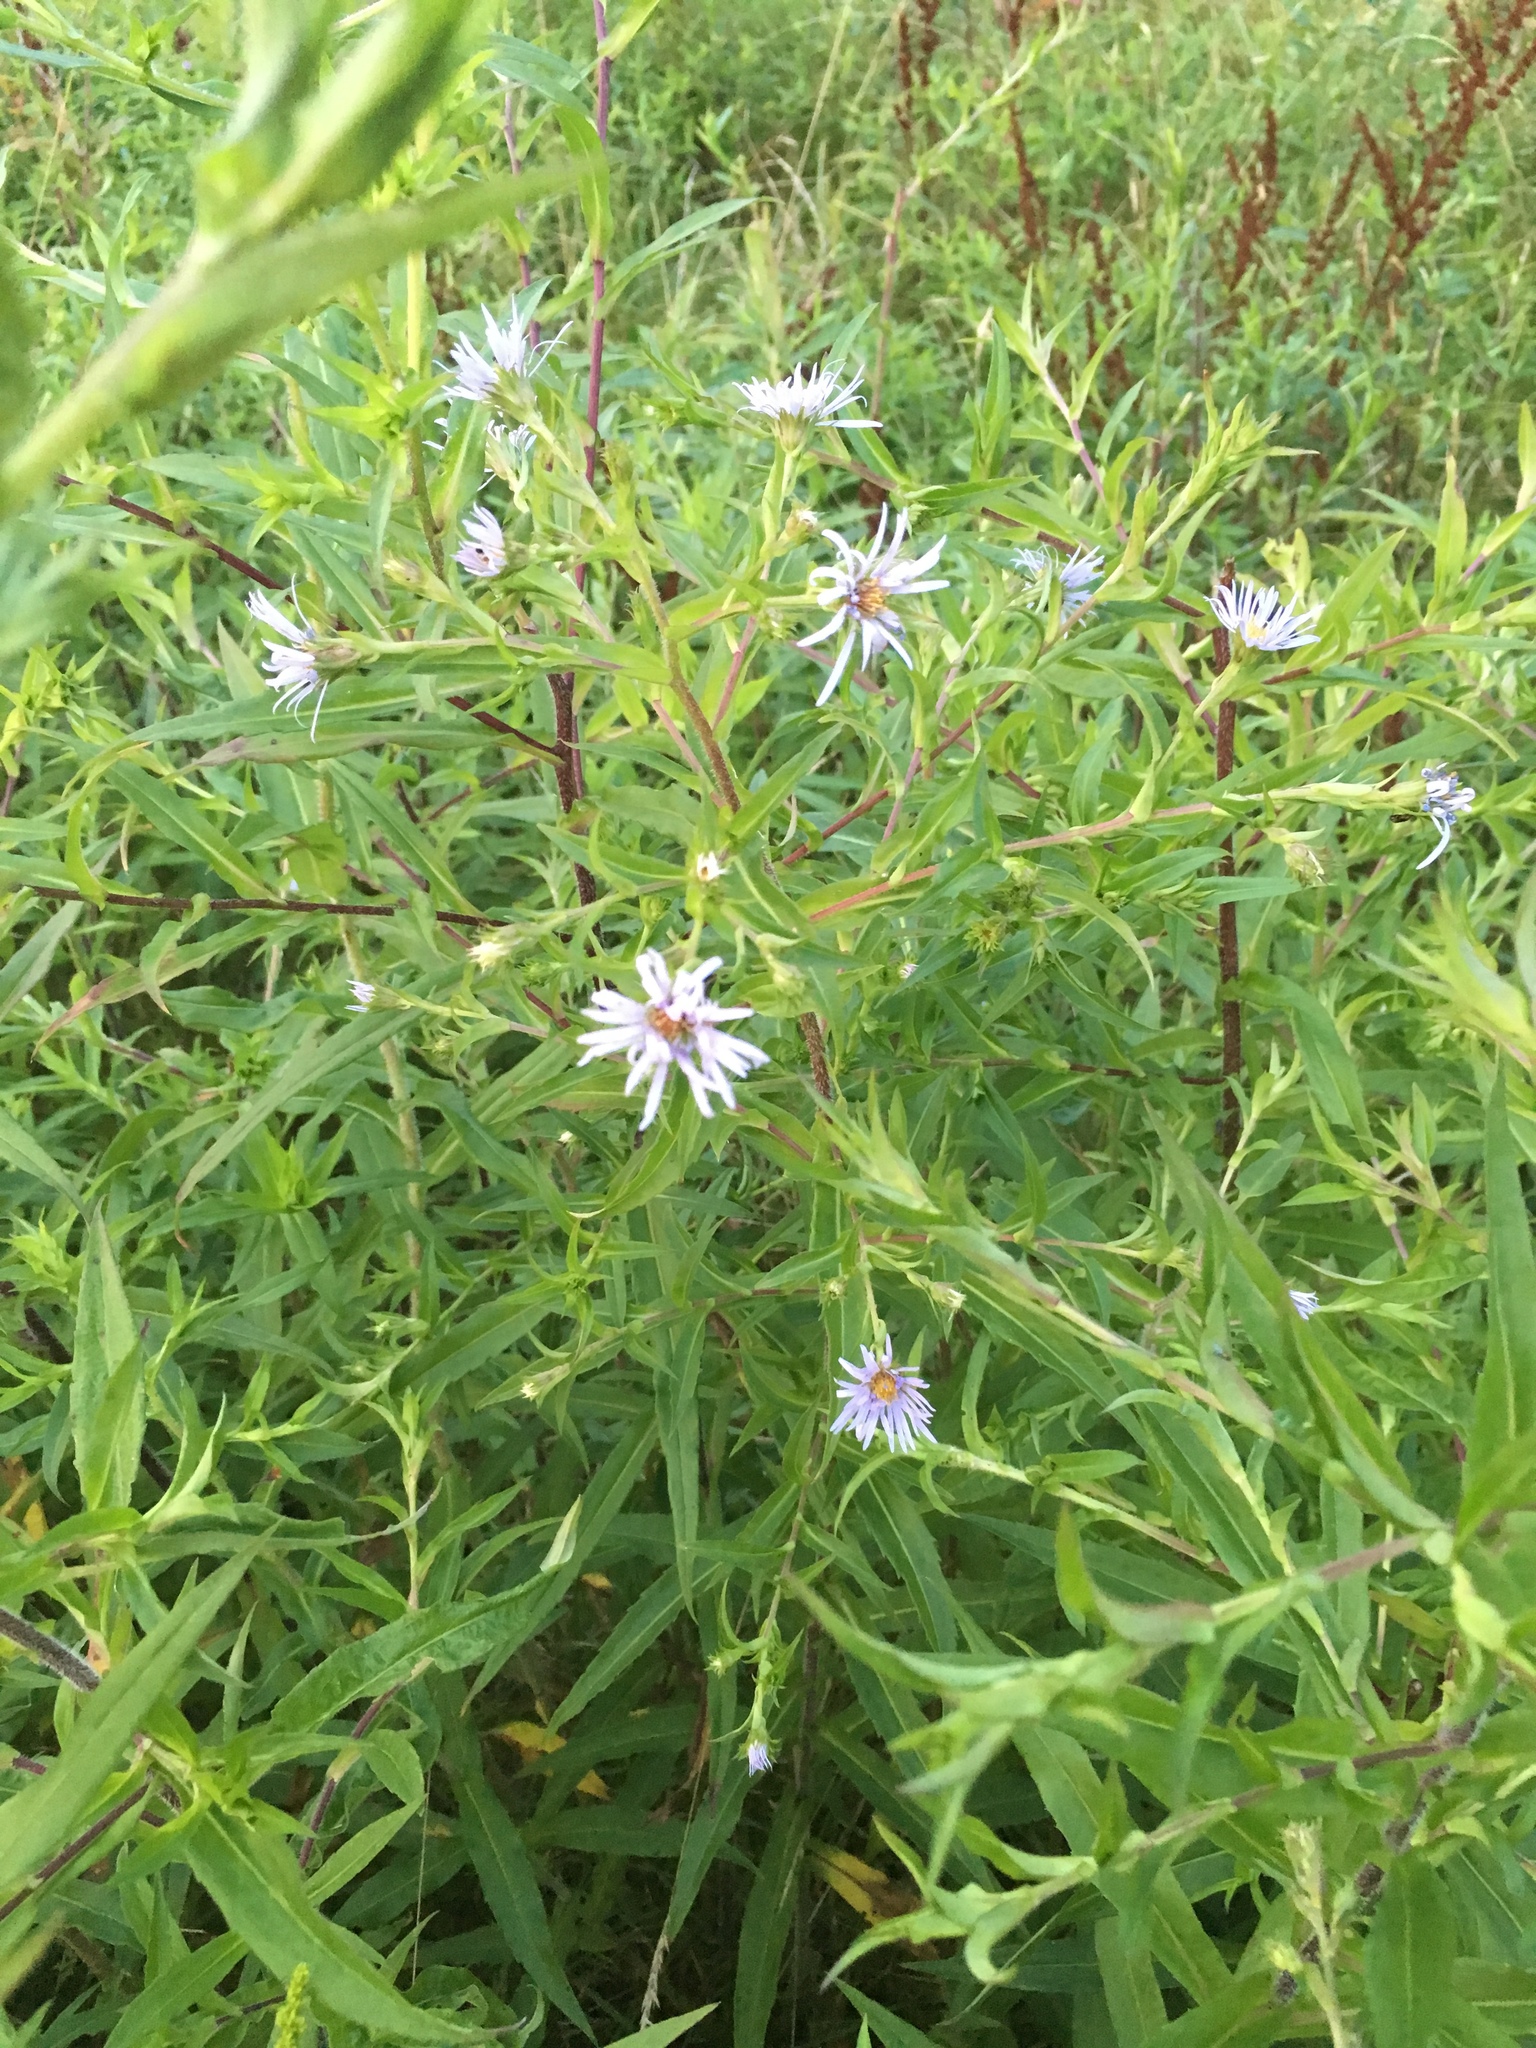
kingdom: Plantae
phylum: Tracheophyta
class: Magnoliopsida
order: Asterales
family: Asteraceae
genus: Symphyotrichum
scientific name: Symphyotrichum puniceum
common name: Bog aster
